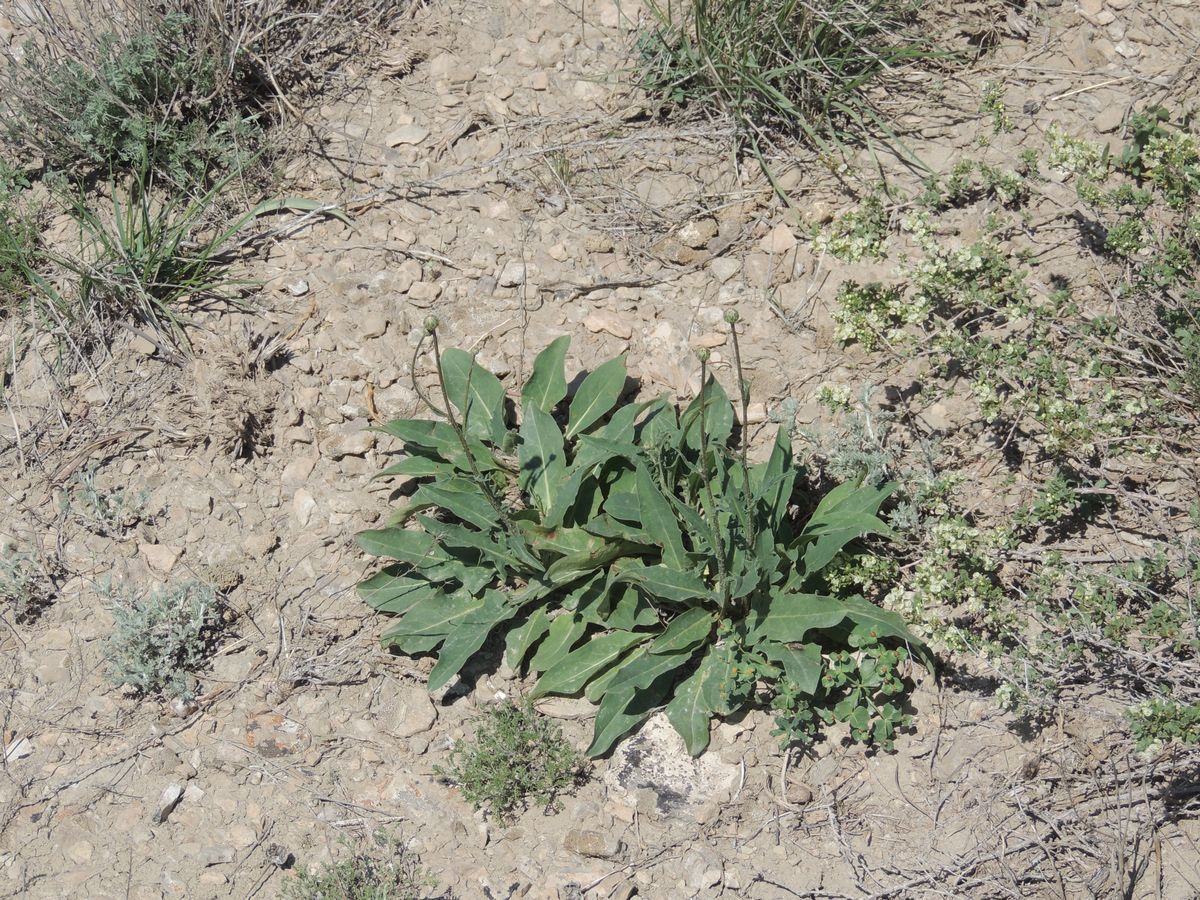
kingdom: Plantae
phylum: Tracheophyta
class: Magnoliopsida
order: Asterales
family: Asteraceae
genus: Klasea
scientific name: Klasea cardunculus
